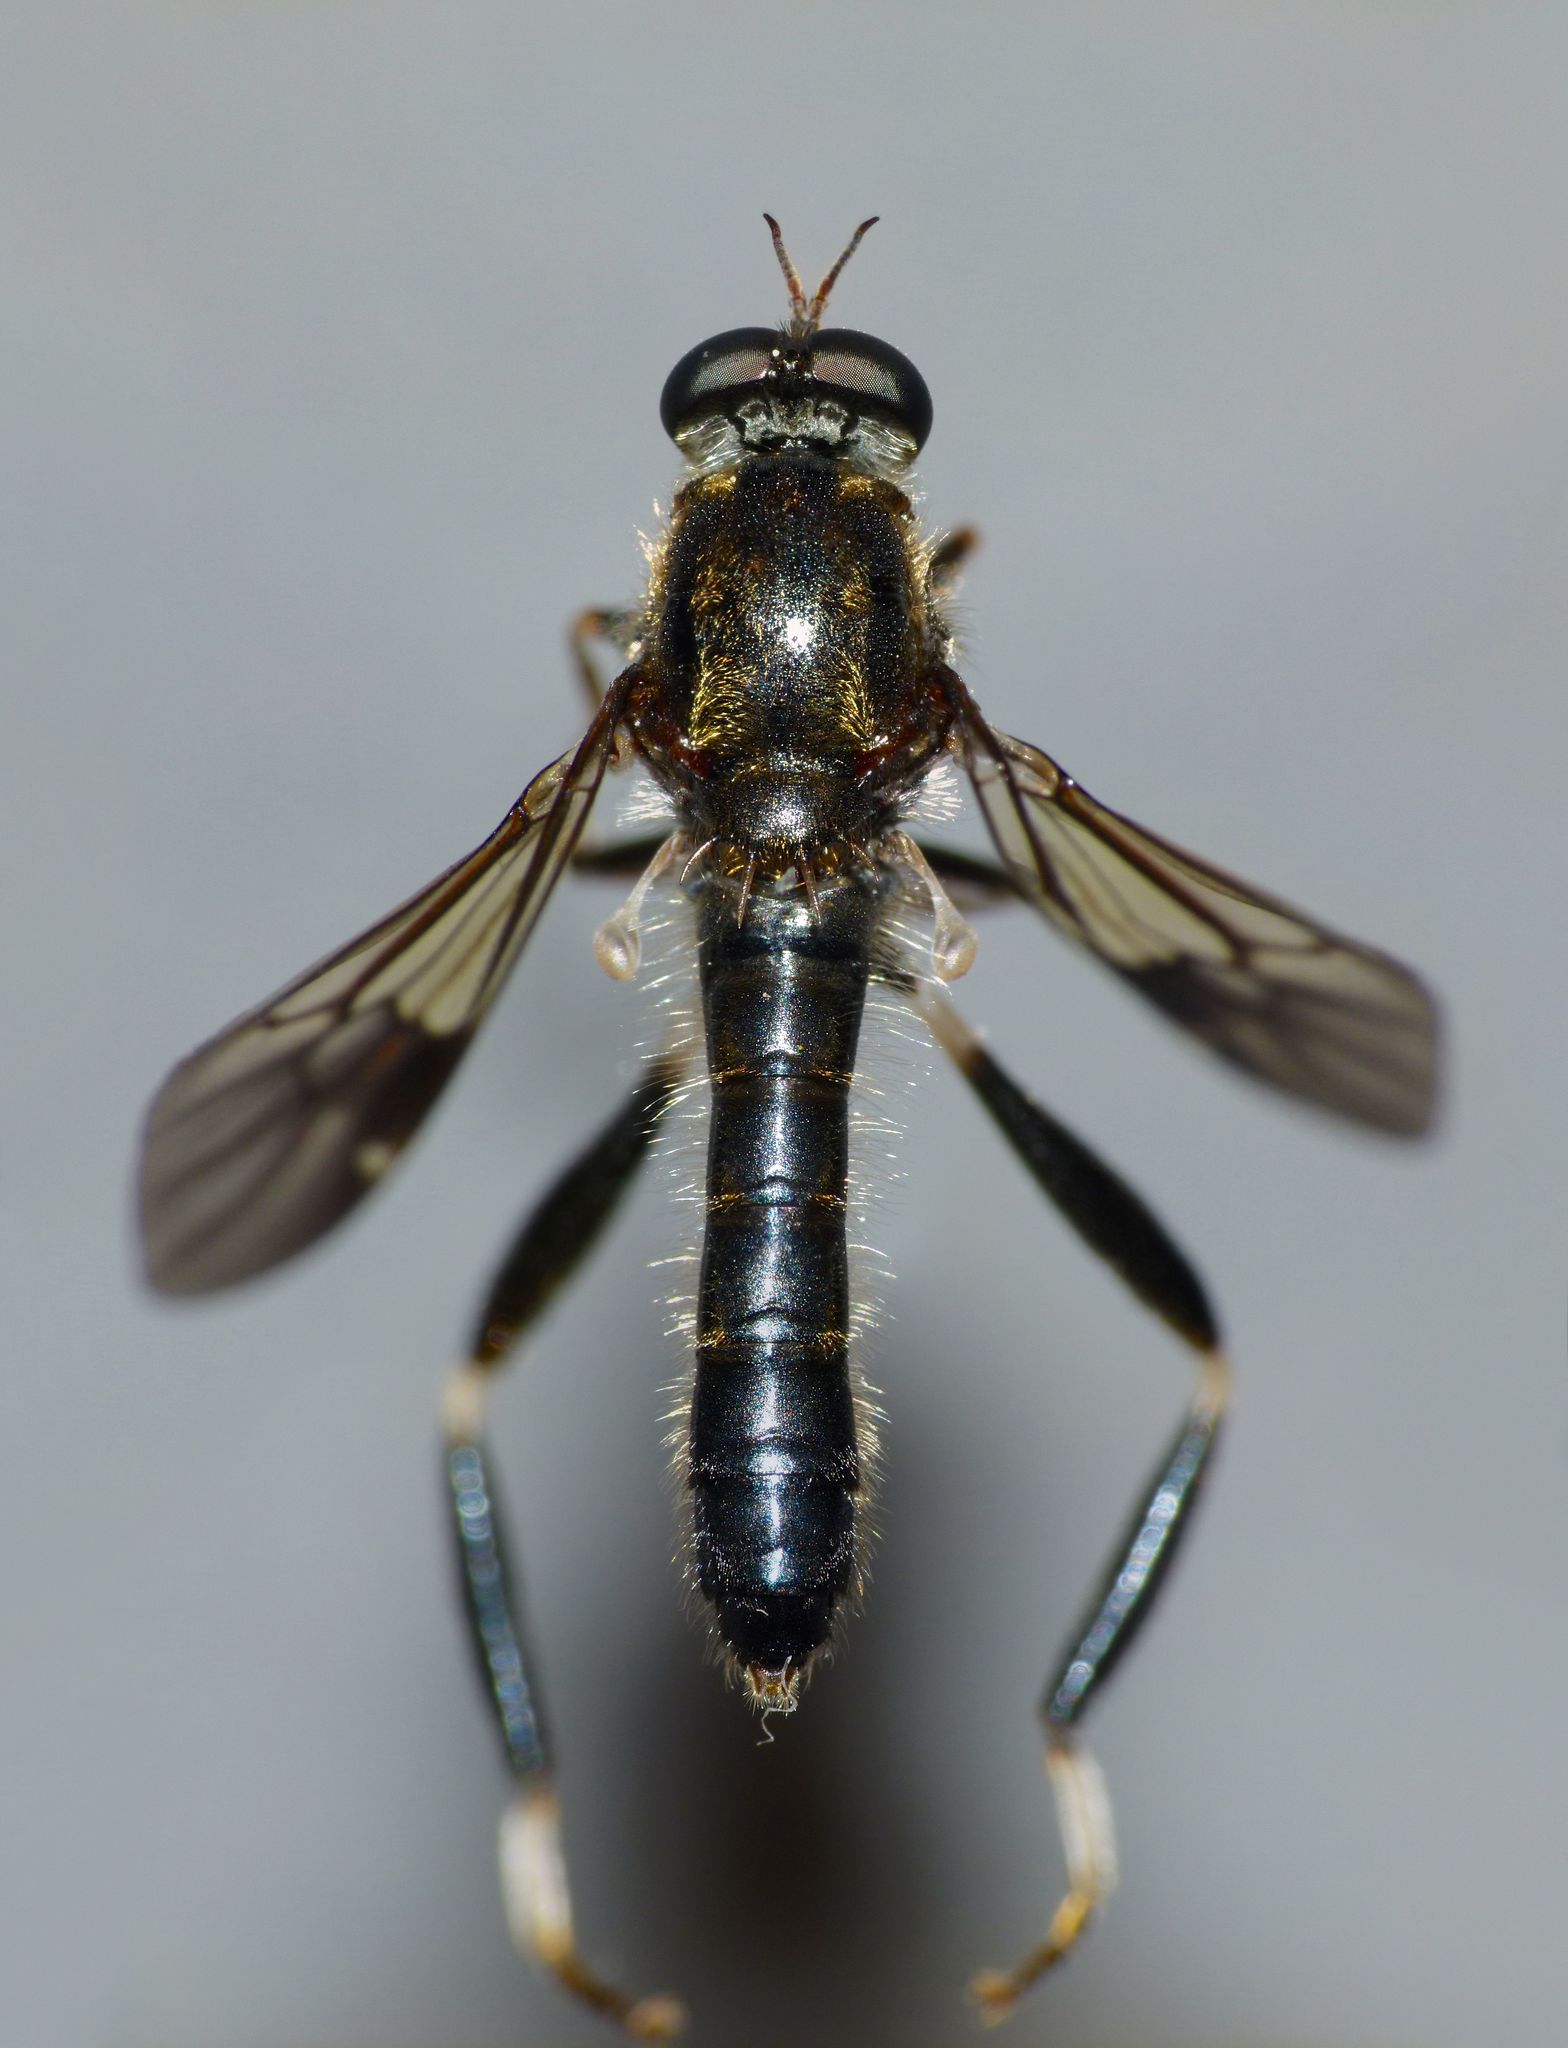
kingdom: Animalia
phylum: Arthropoda
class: Insecta
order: Diptera
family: Stratiomyidae
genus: Exaireta
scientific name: Exaireta spinigera
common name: Blue soldier fly
